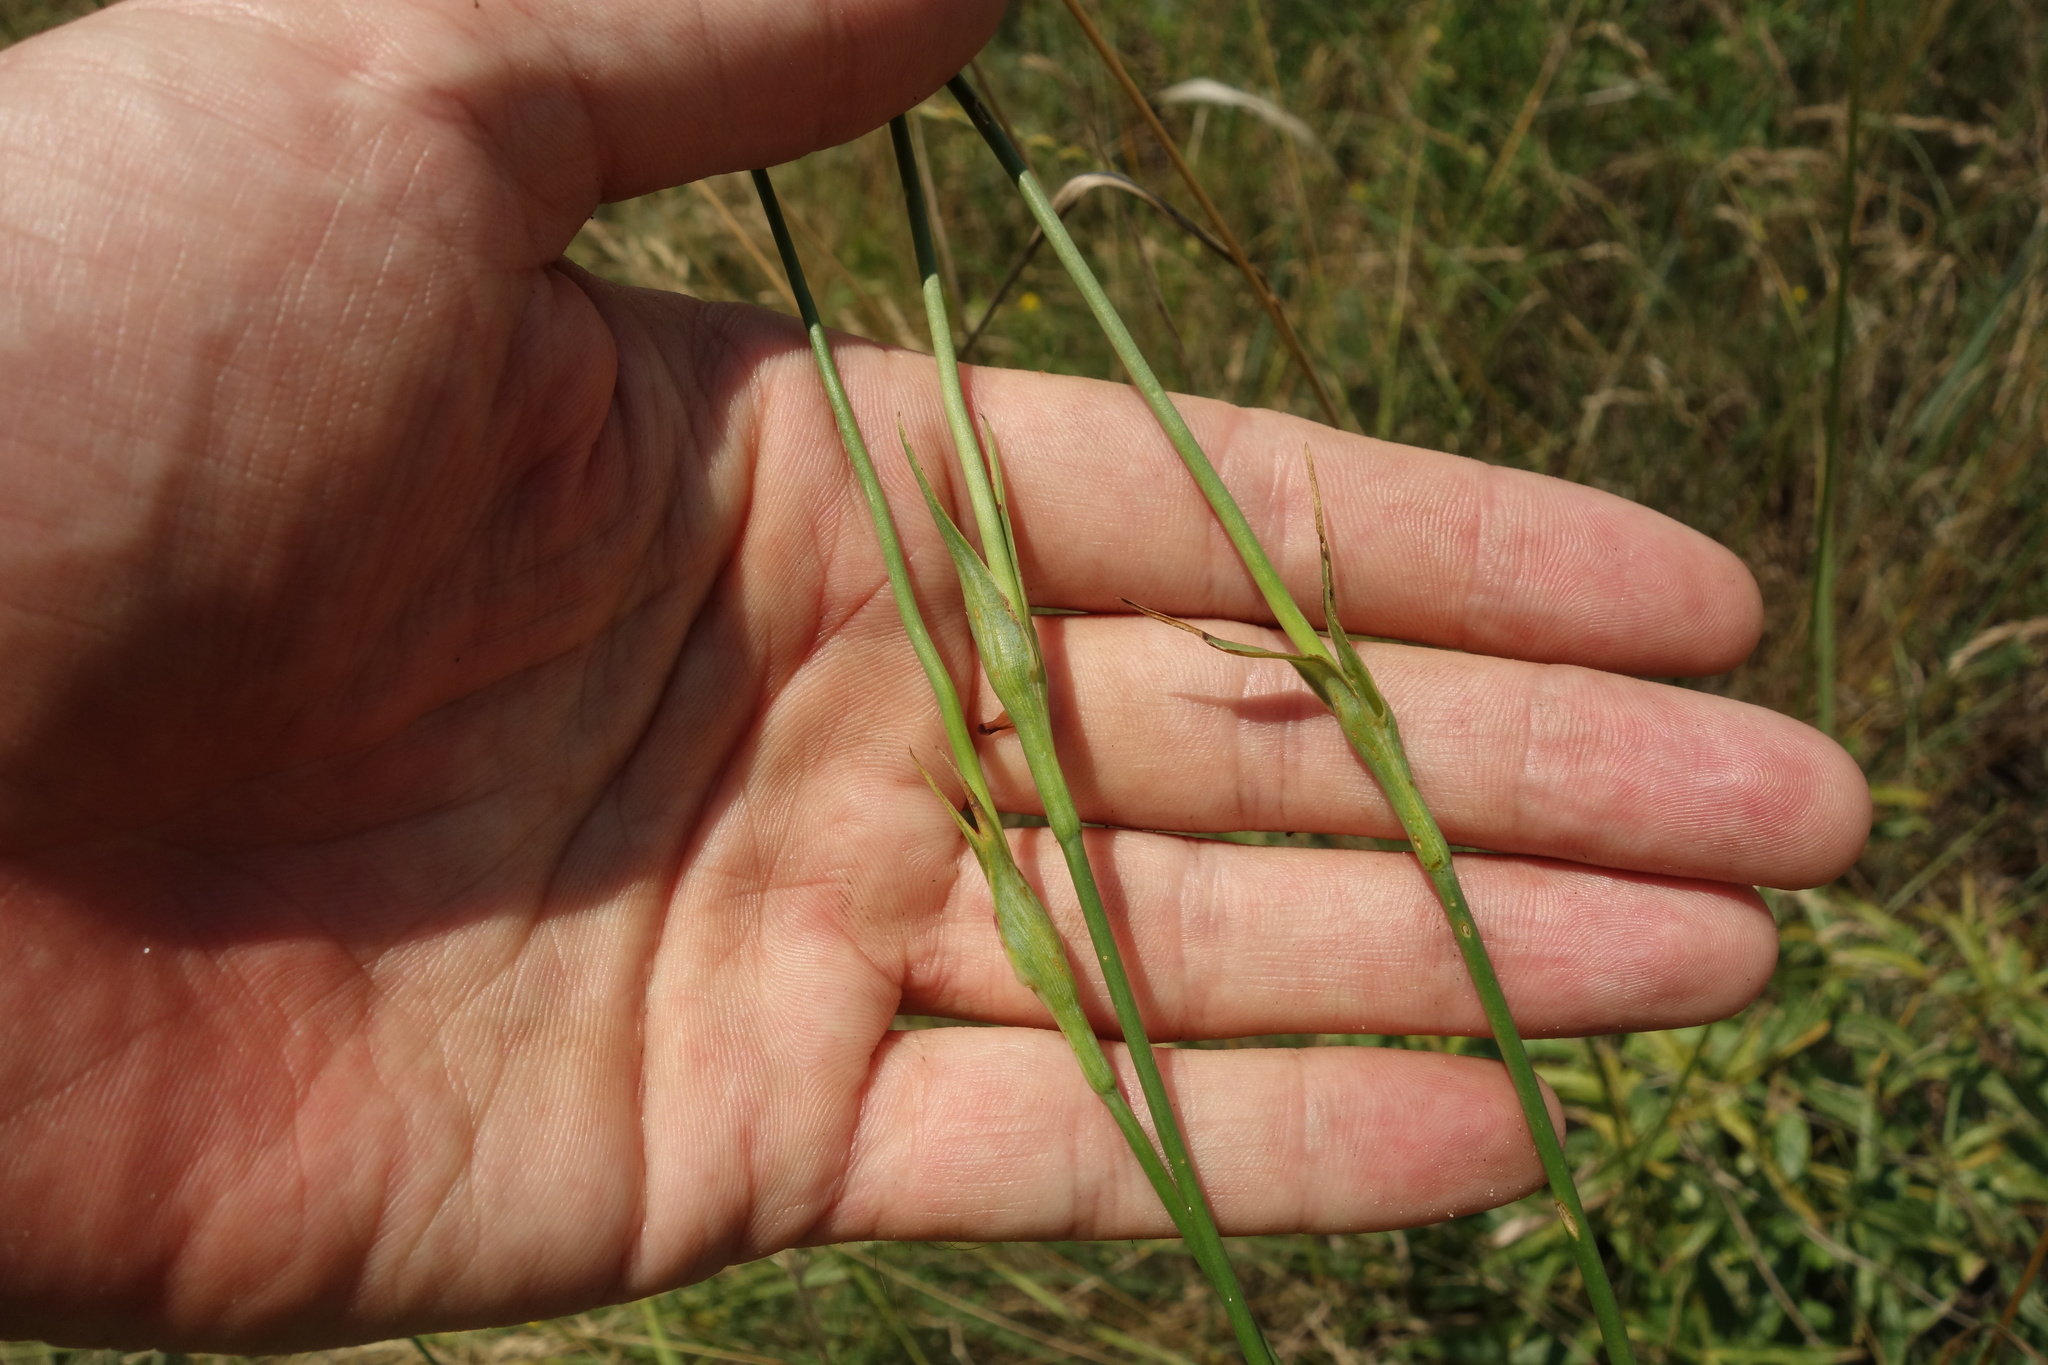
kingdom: Plantae
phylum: Tracheophyta
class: Magnoliopsida
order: Caryophyllales
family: Caryophyllaceae
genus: Dianthus
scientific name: Dianthus capitatus
